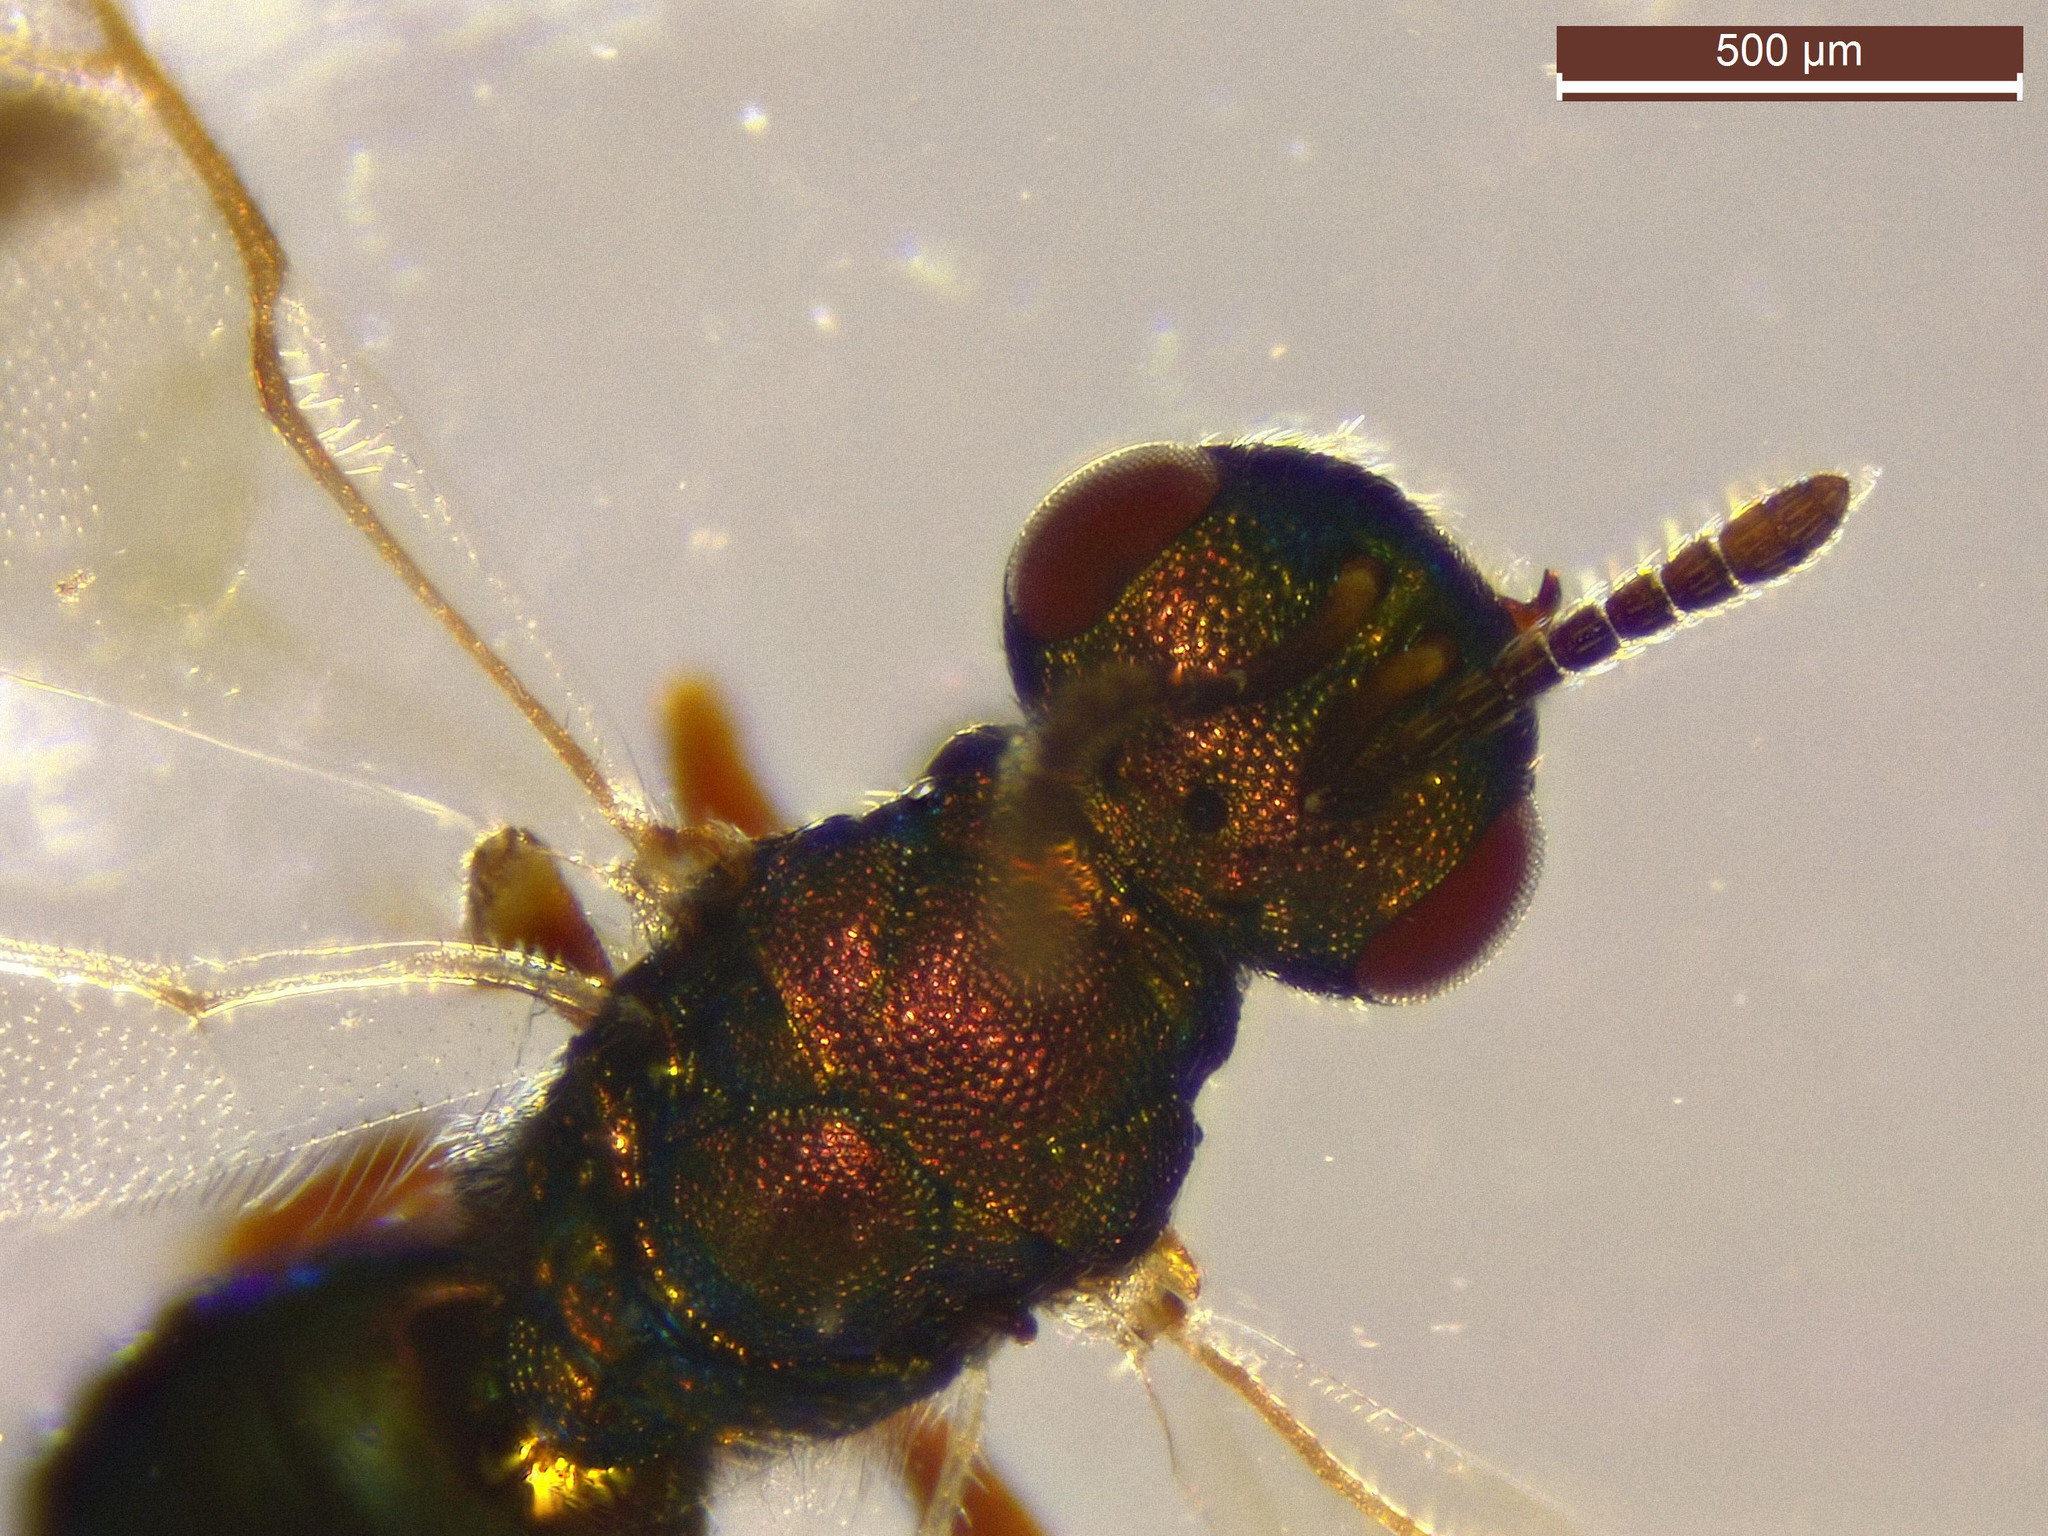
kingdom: Animalia
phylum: Arthropoda
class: Insecta
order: Hymenoptera
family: Pteromalidae
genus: Spaniopus
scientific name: Spaniopus peisonis
